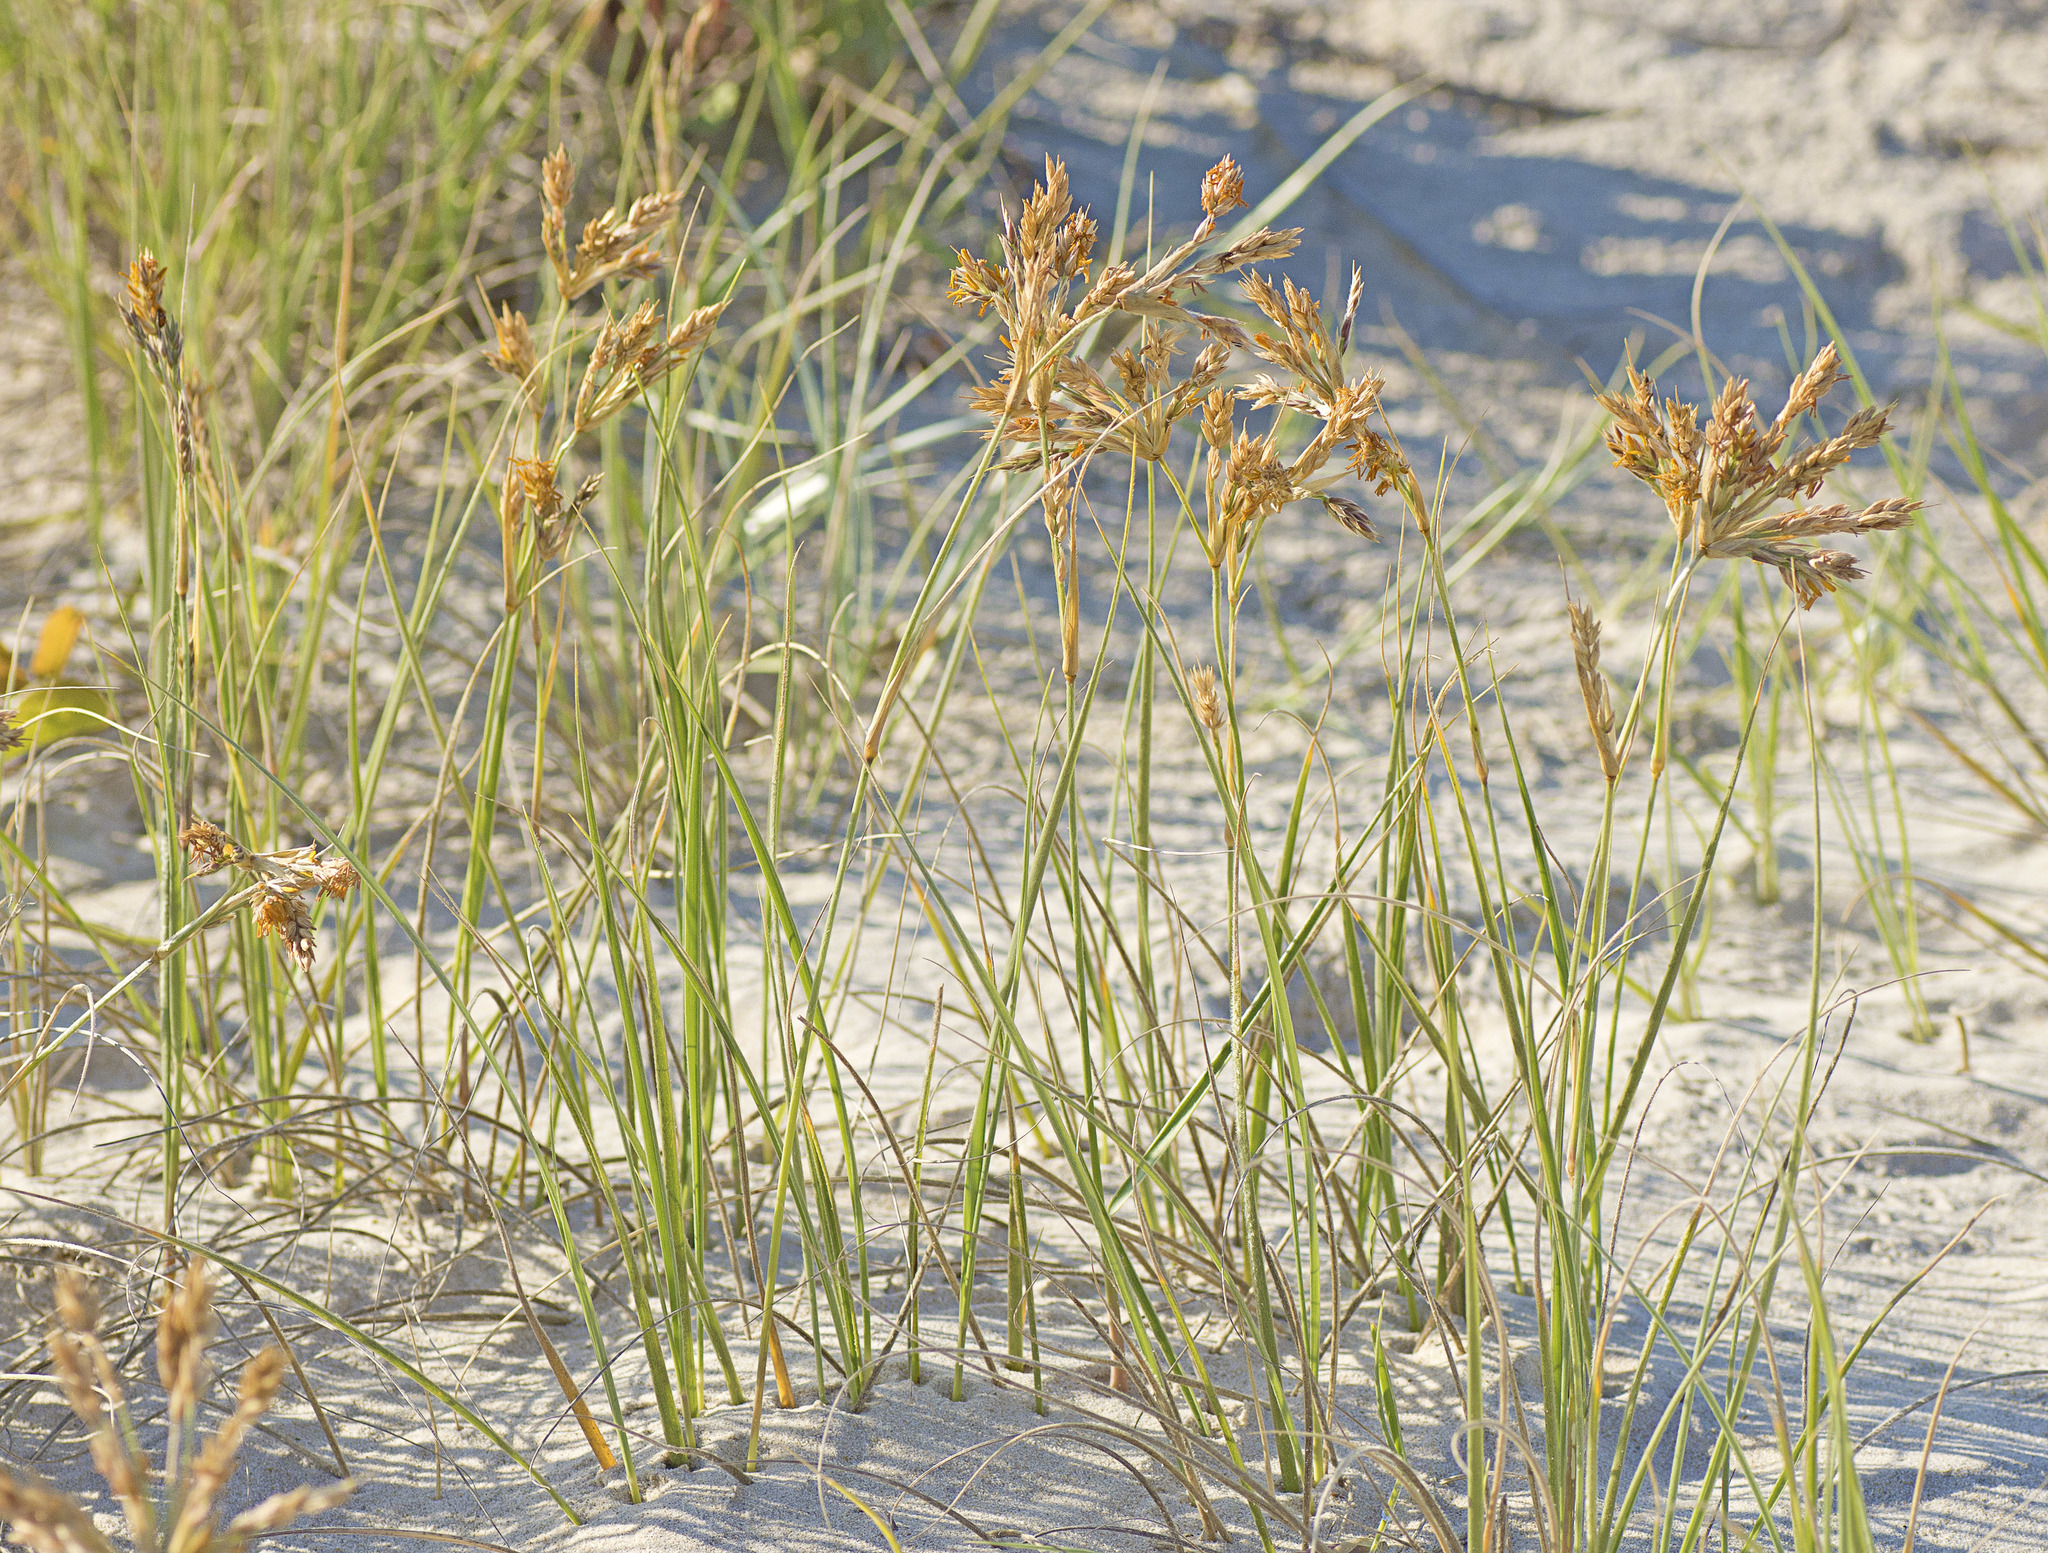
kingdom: Plantae
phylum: Tracheophyta
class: Liliopsida
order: Poales
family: Poaceae
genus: Spinifex
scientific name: Spinifex sericeus
